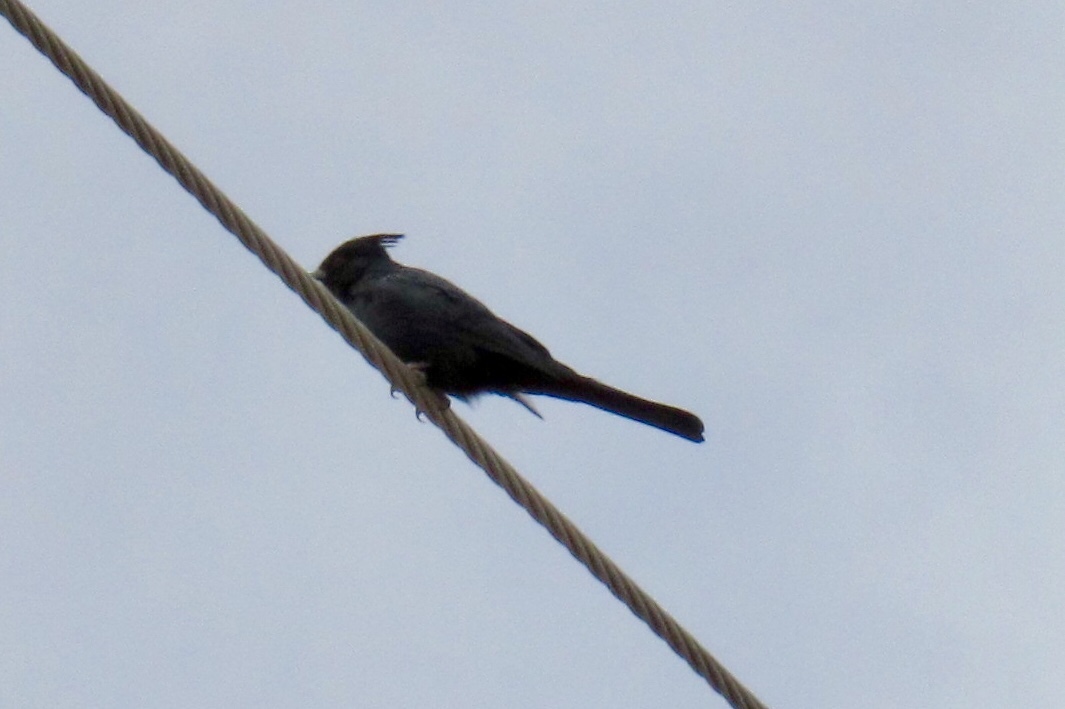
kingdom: Animalia
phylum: Chordata
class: Aves
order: Passeriformes
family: Ptilogonatidae
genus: Phainopepla
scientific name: Phainopepla nitens
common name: Phainopepla
